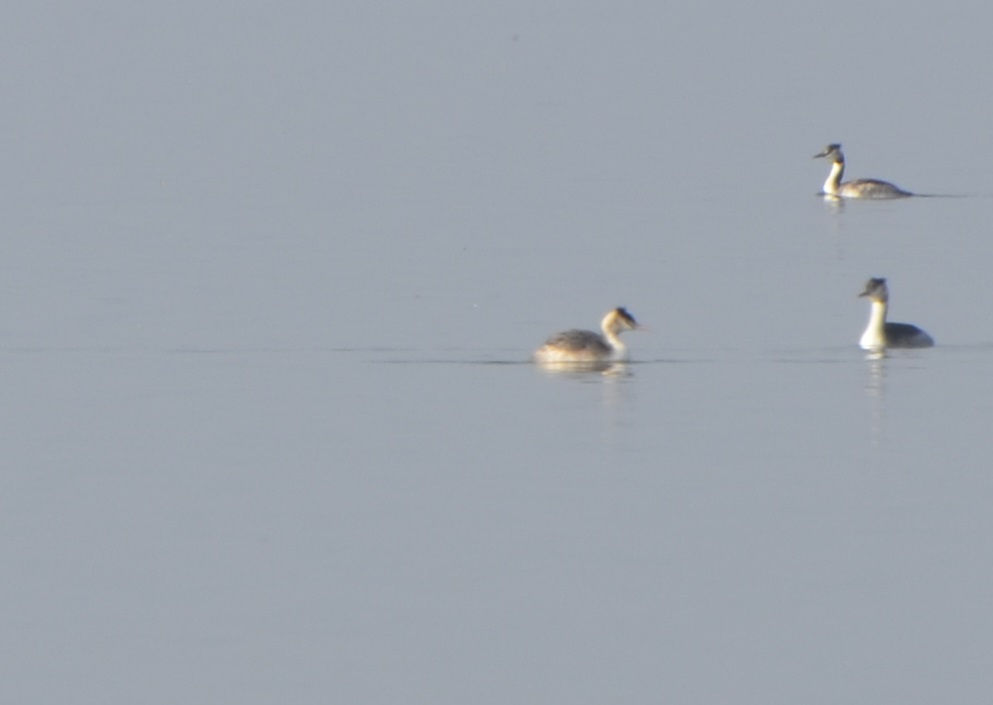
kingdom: Animalia
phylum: Chordata
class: Aves
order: Podicipediformes
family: Podicipedidae
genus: Podiceps
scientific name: Podiceps cristatus
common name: Great crested grebe
